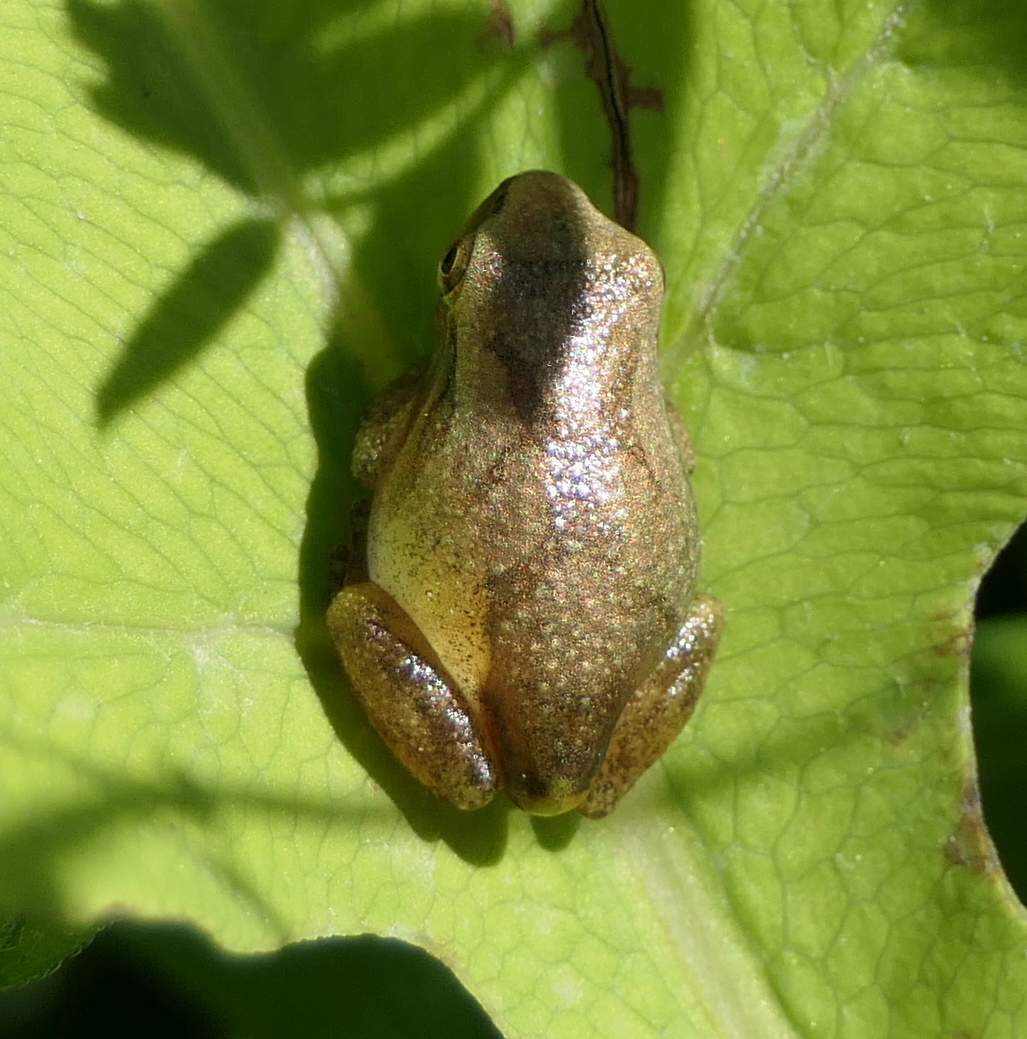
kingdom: Animalia
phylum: Chordata
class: Amphibia
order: Anura
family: Hylidae
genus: Pseudacris
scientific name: Pseudacris crucifer
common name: Spring peeper
